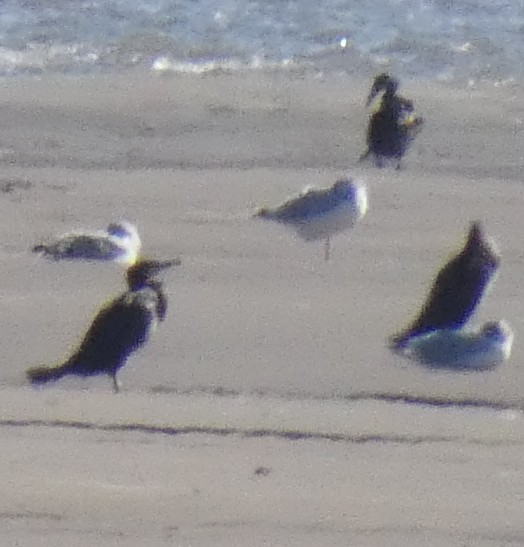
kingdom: Animalia
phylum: Chordata
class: Aves
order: Suliformes
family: Phalacrocoracidae
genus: Phalacrocorax
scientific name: Phalacrocorax carbo
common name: Great cormorant
